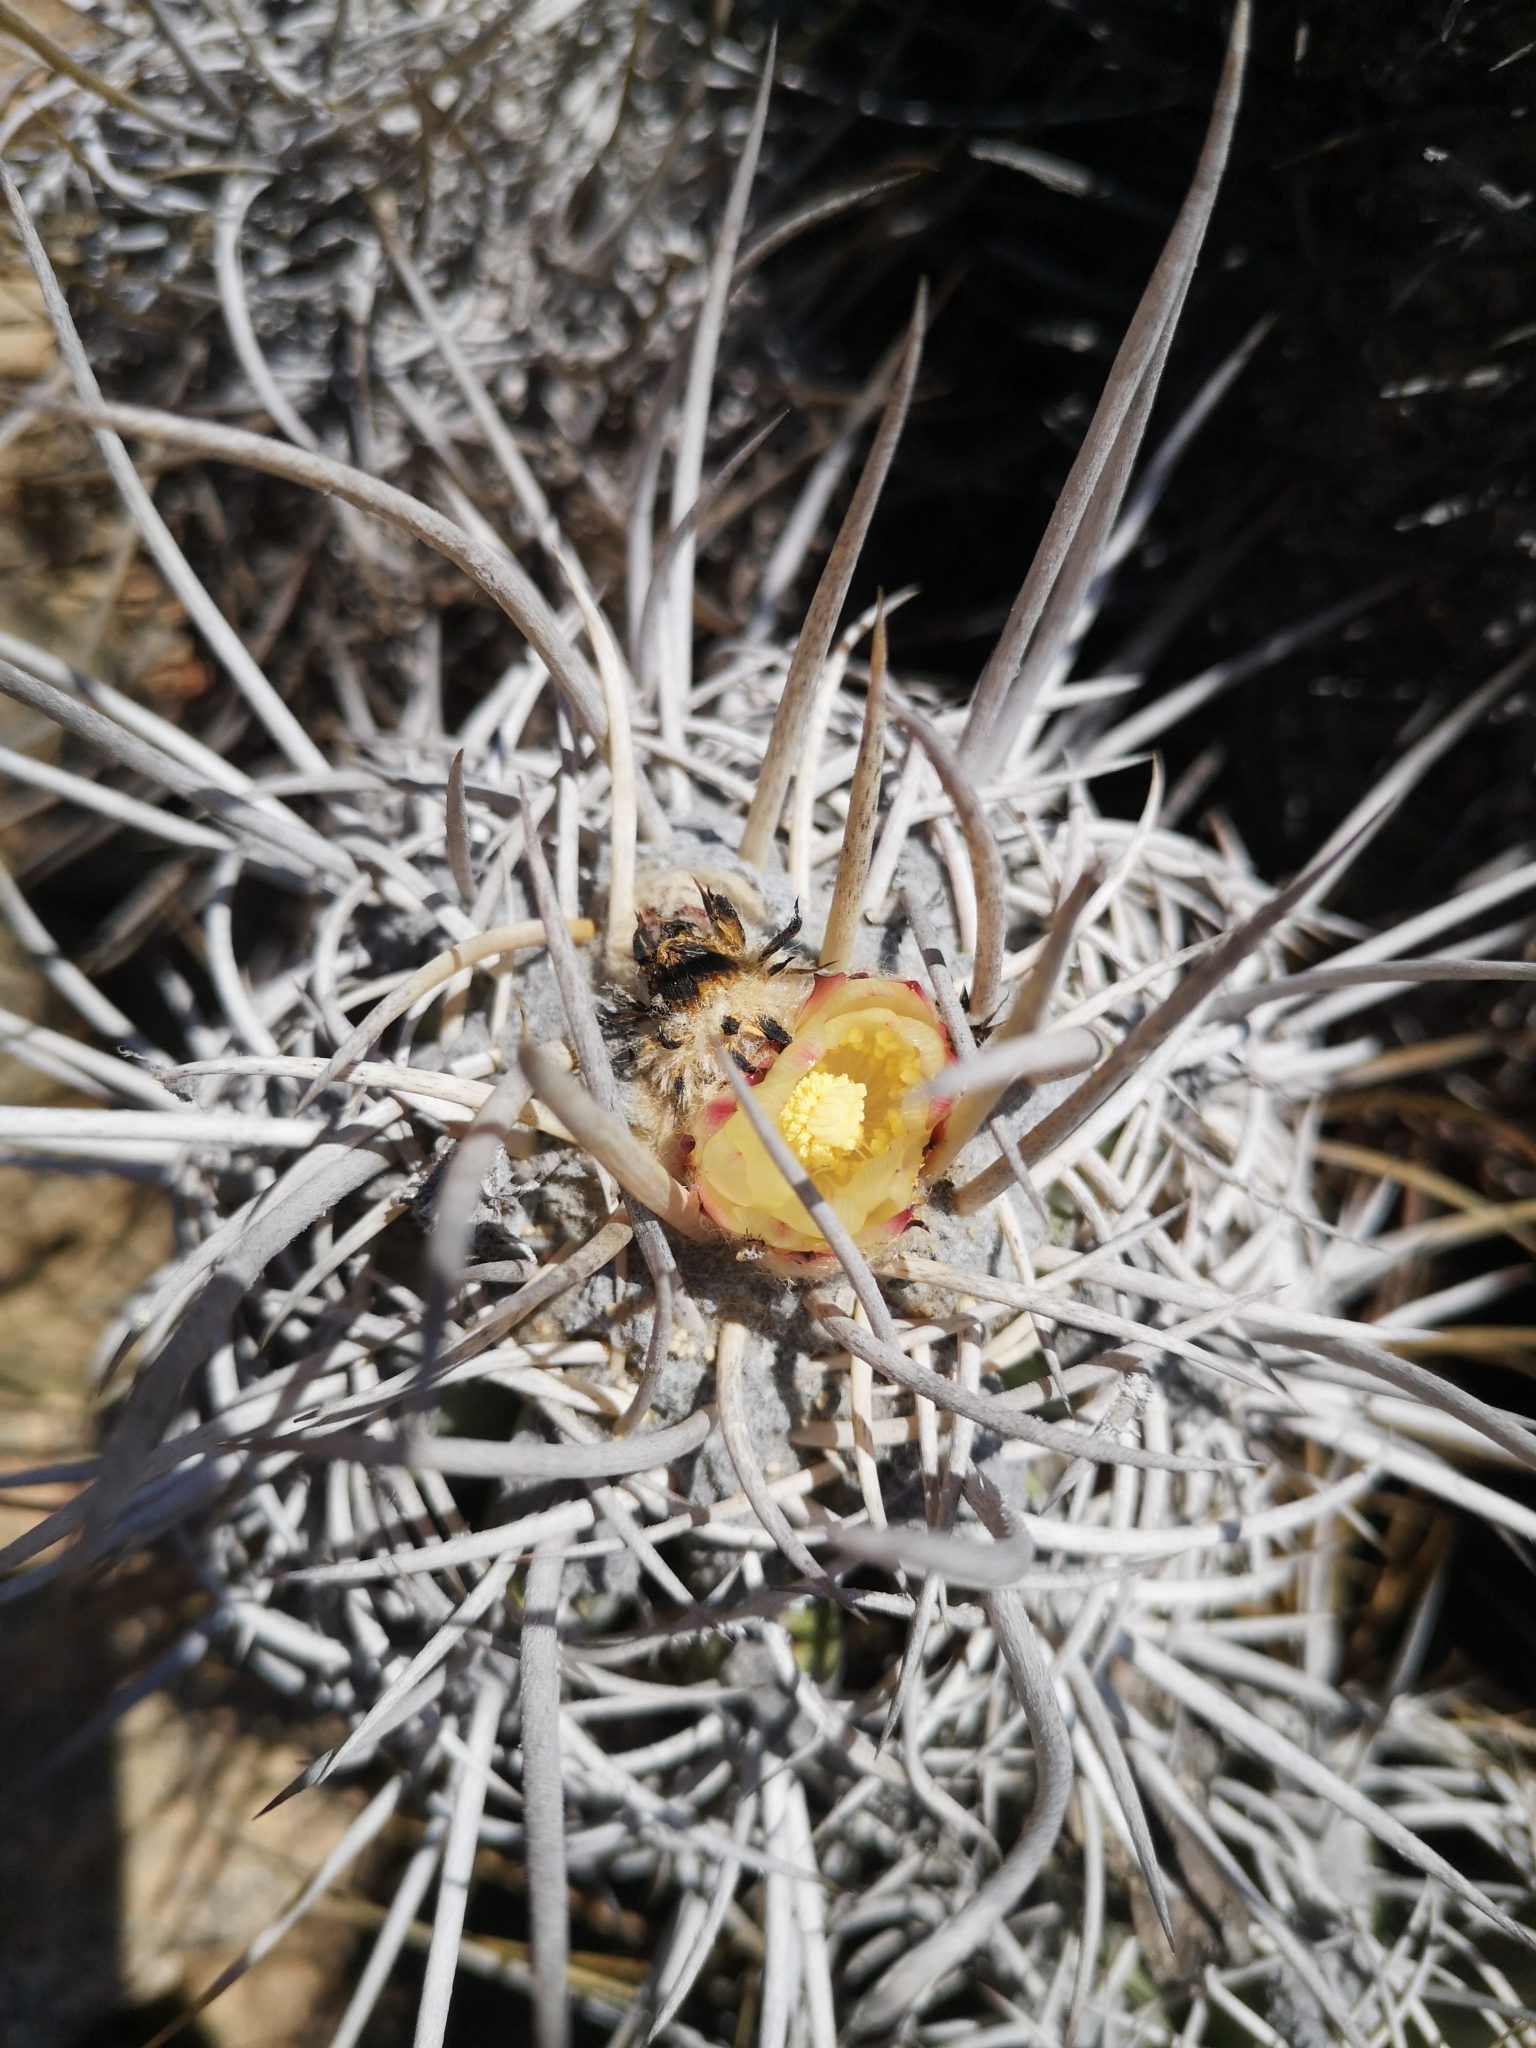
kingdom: Plantae
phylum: Tracheophyta
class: Magnoliopsida
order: Caryophyllales
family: Cactaceae
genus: Copiapoa
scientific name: Copiapoa solaris
